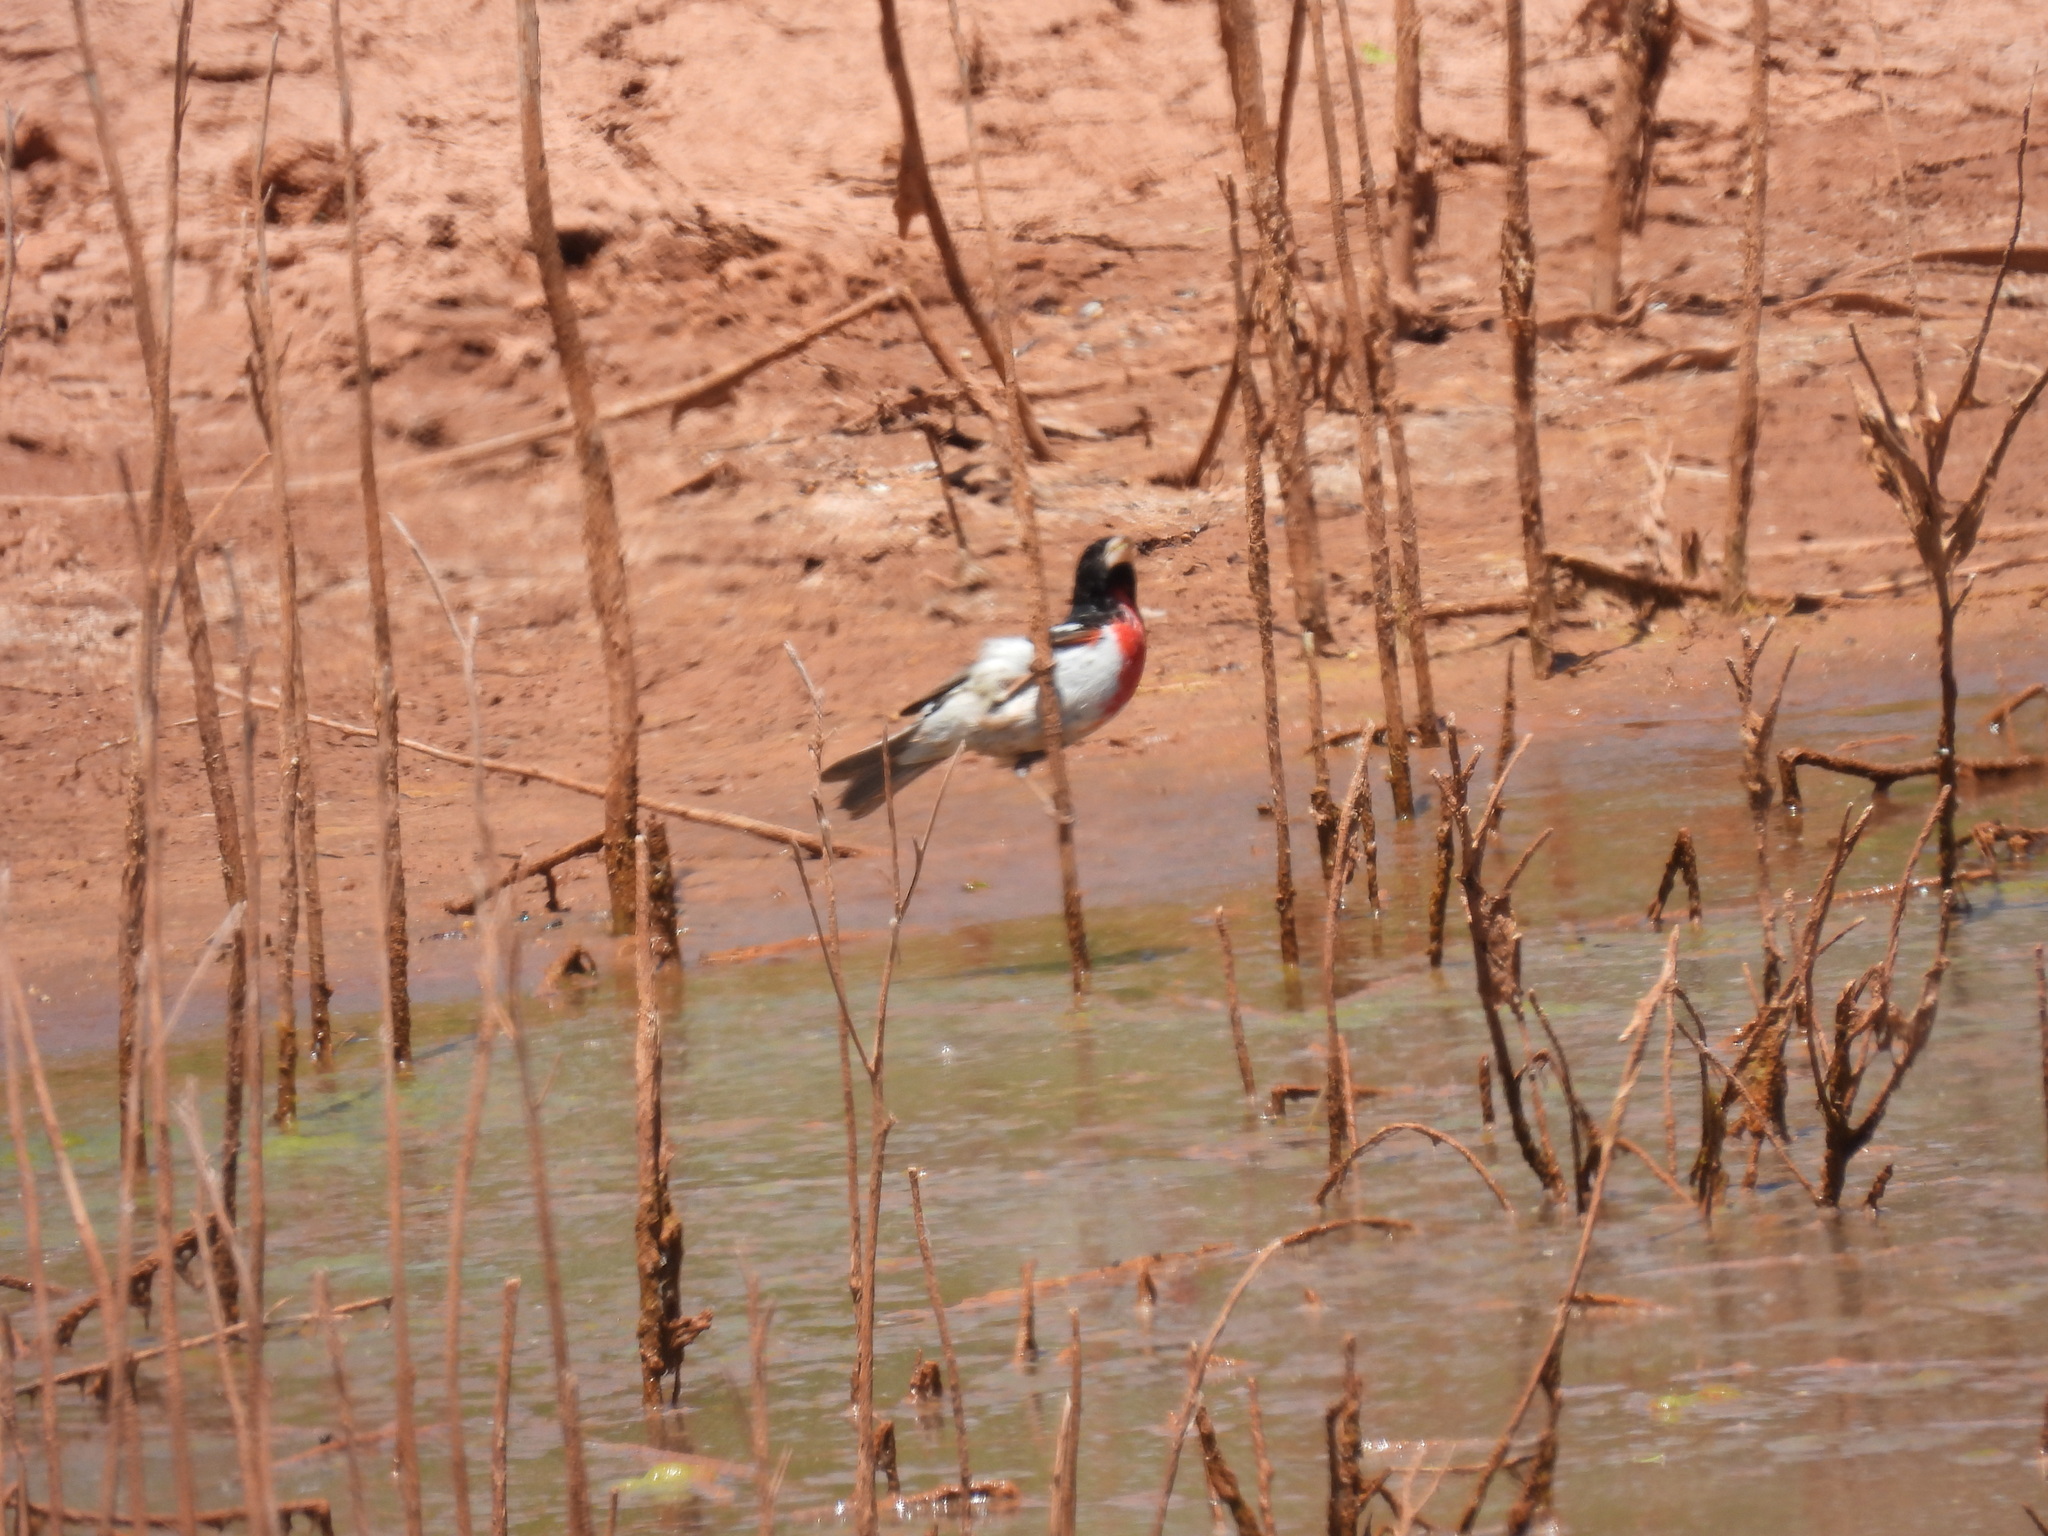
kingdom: Animalia
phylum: Chordata
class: Aves
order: Passeriformes
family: Cardinalidae
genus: Pheucticus
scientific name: Pheucticus ludovicianus
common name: Rose-breasted grosbeak
